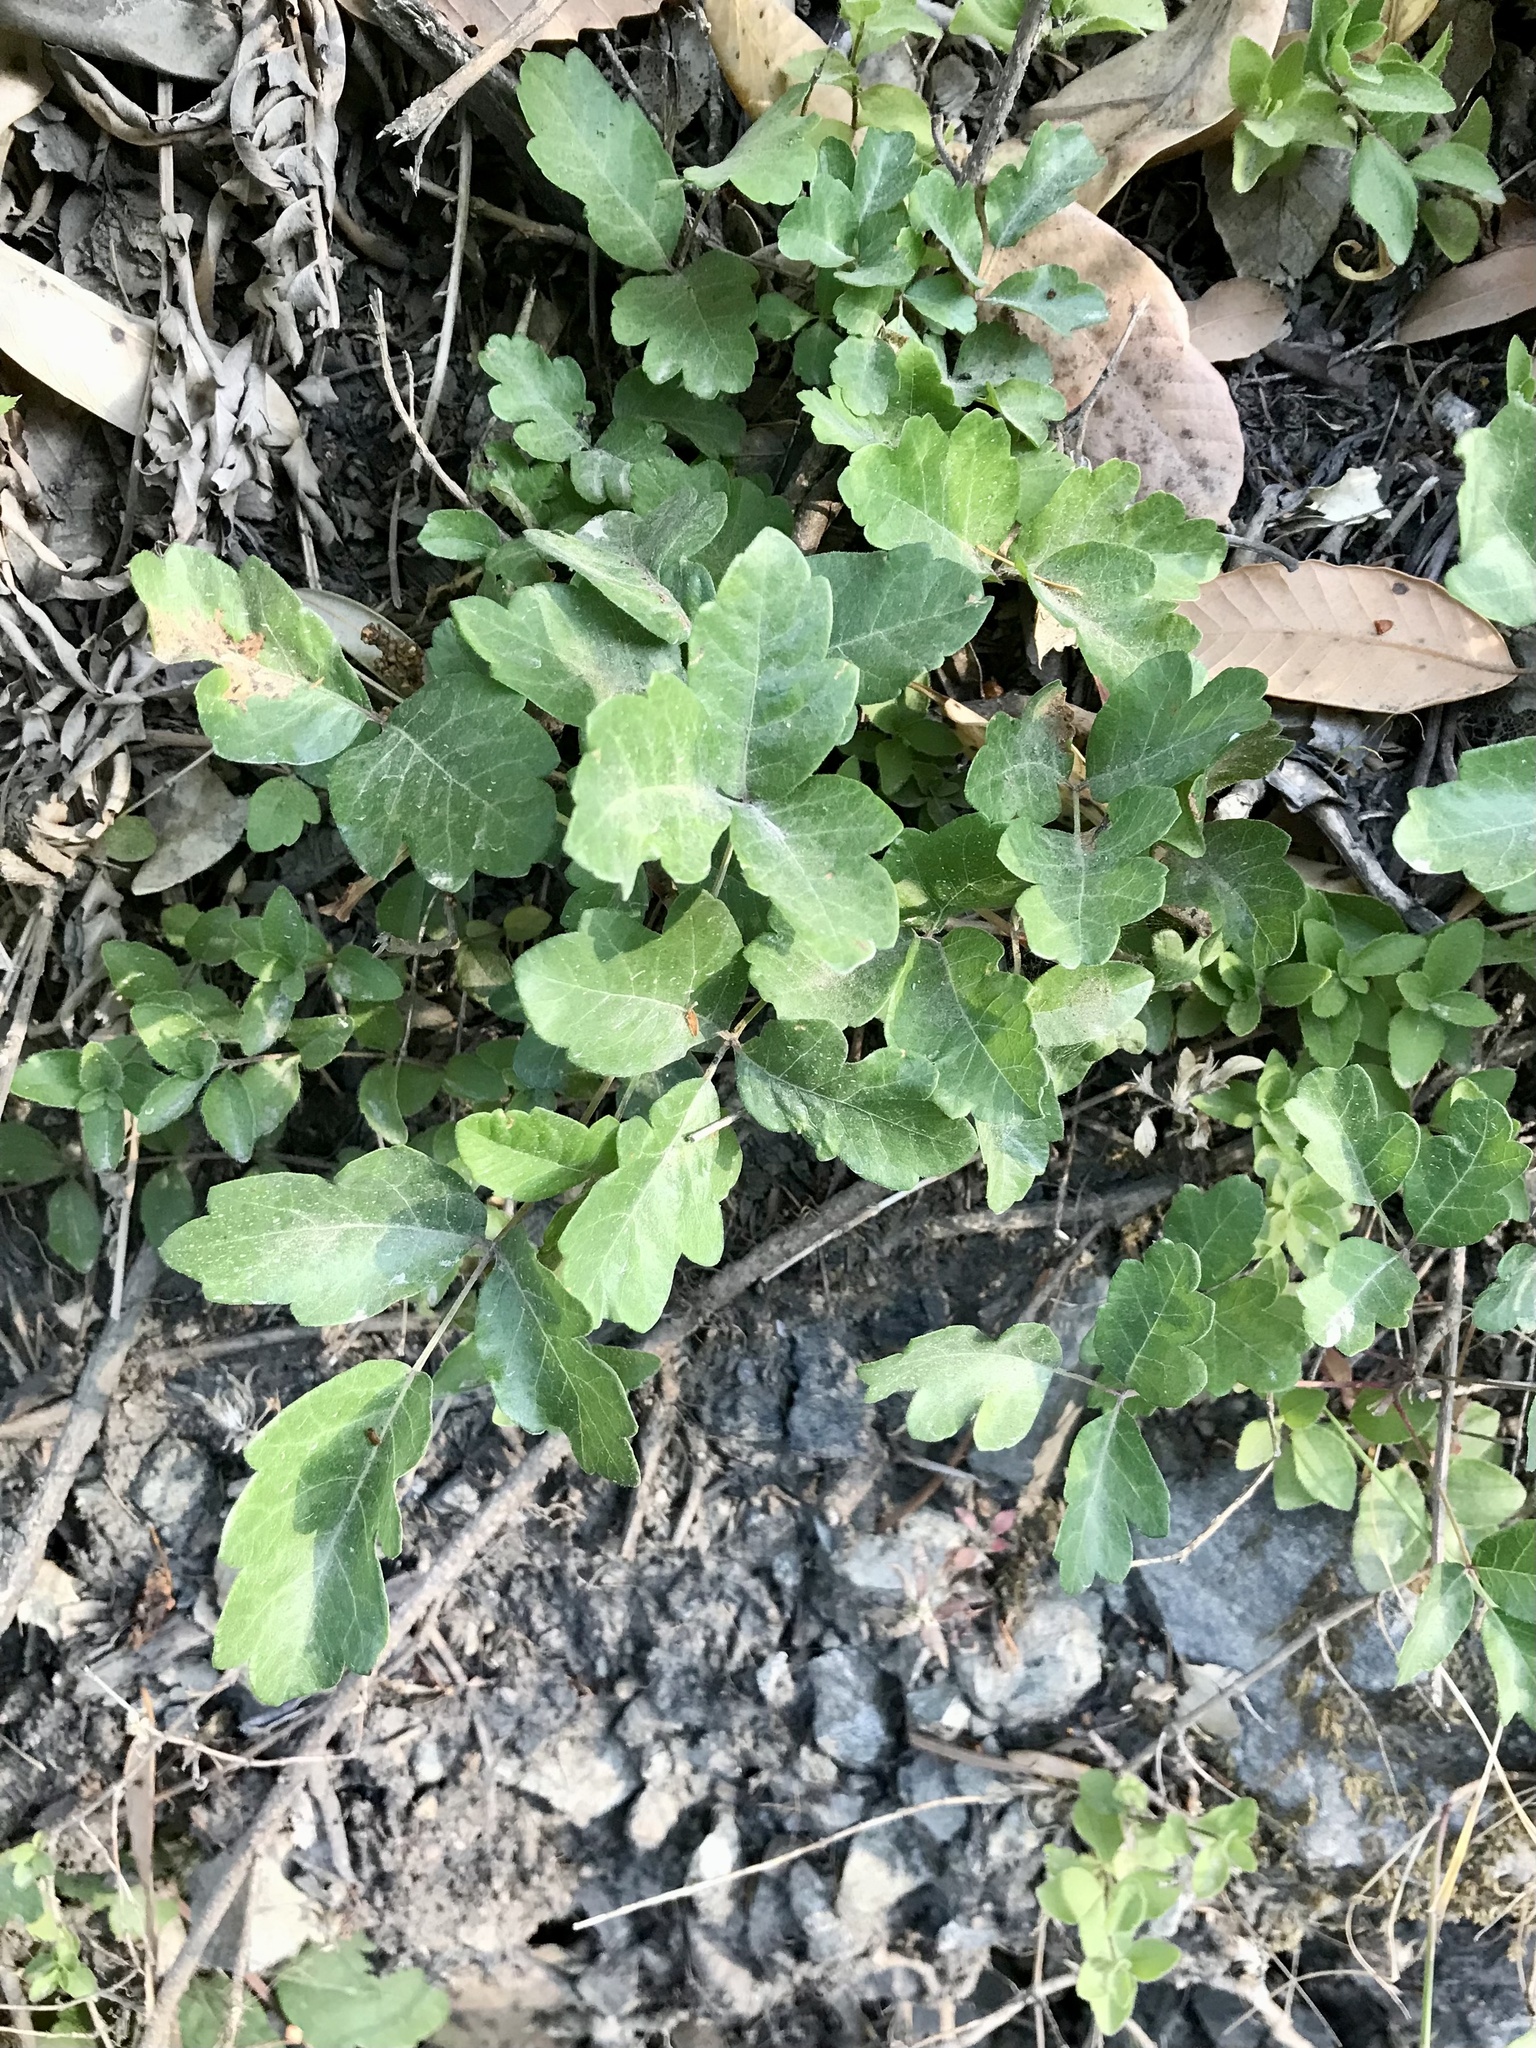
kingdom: Plantae
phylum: Tracheophyta
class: Magnoliopsida
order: Sapindales
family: Anacardiaceae
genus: Toxicodendron
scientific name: Toxicodendron diversilobum
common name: Pacific poison-oak
